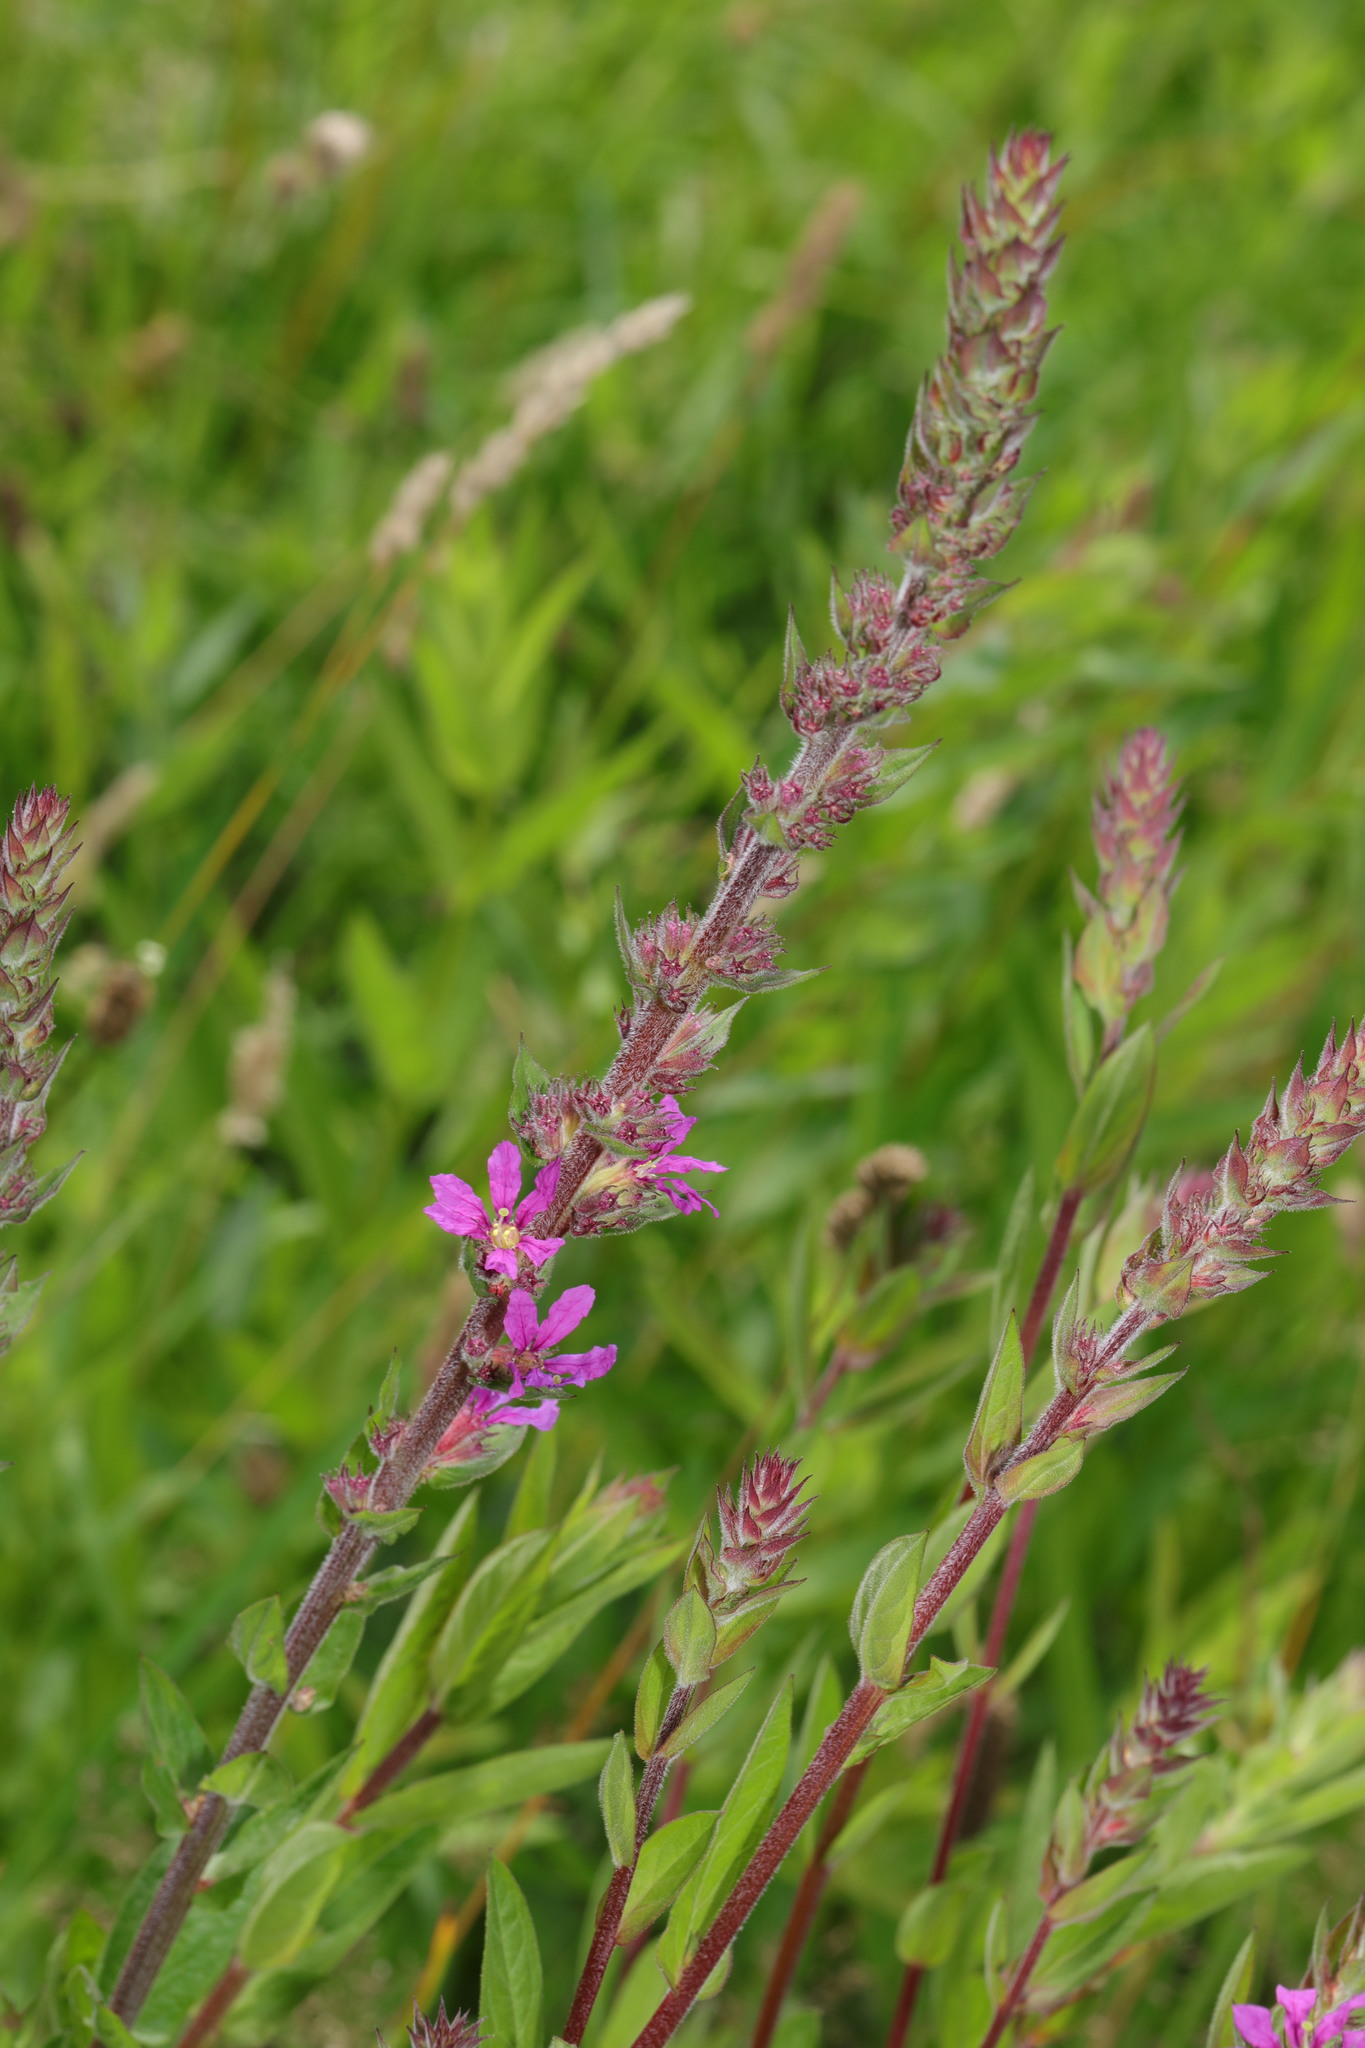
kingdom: Plantae
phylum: Tracheophyta
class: Magnoliopsida
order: Myrtales
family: Lythraceae
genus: Lythrum
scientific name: Lythrum salicaria
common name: Purple loosestrife
